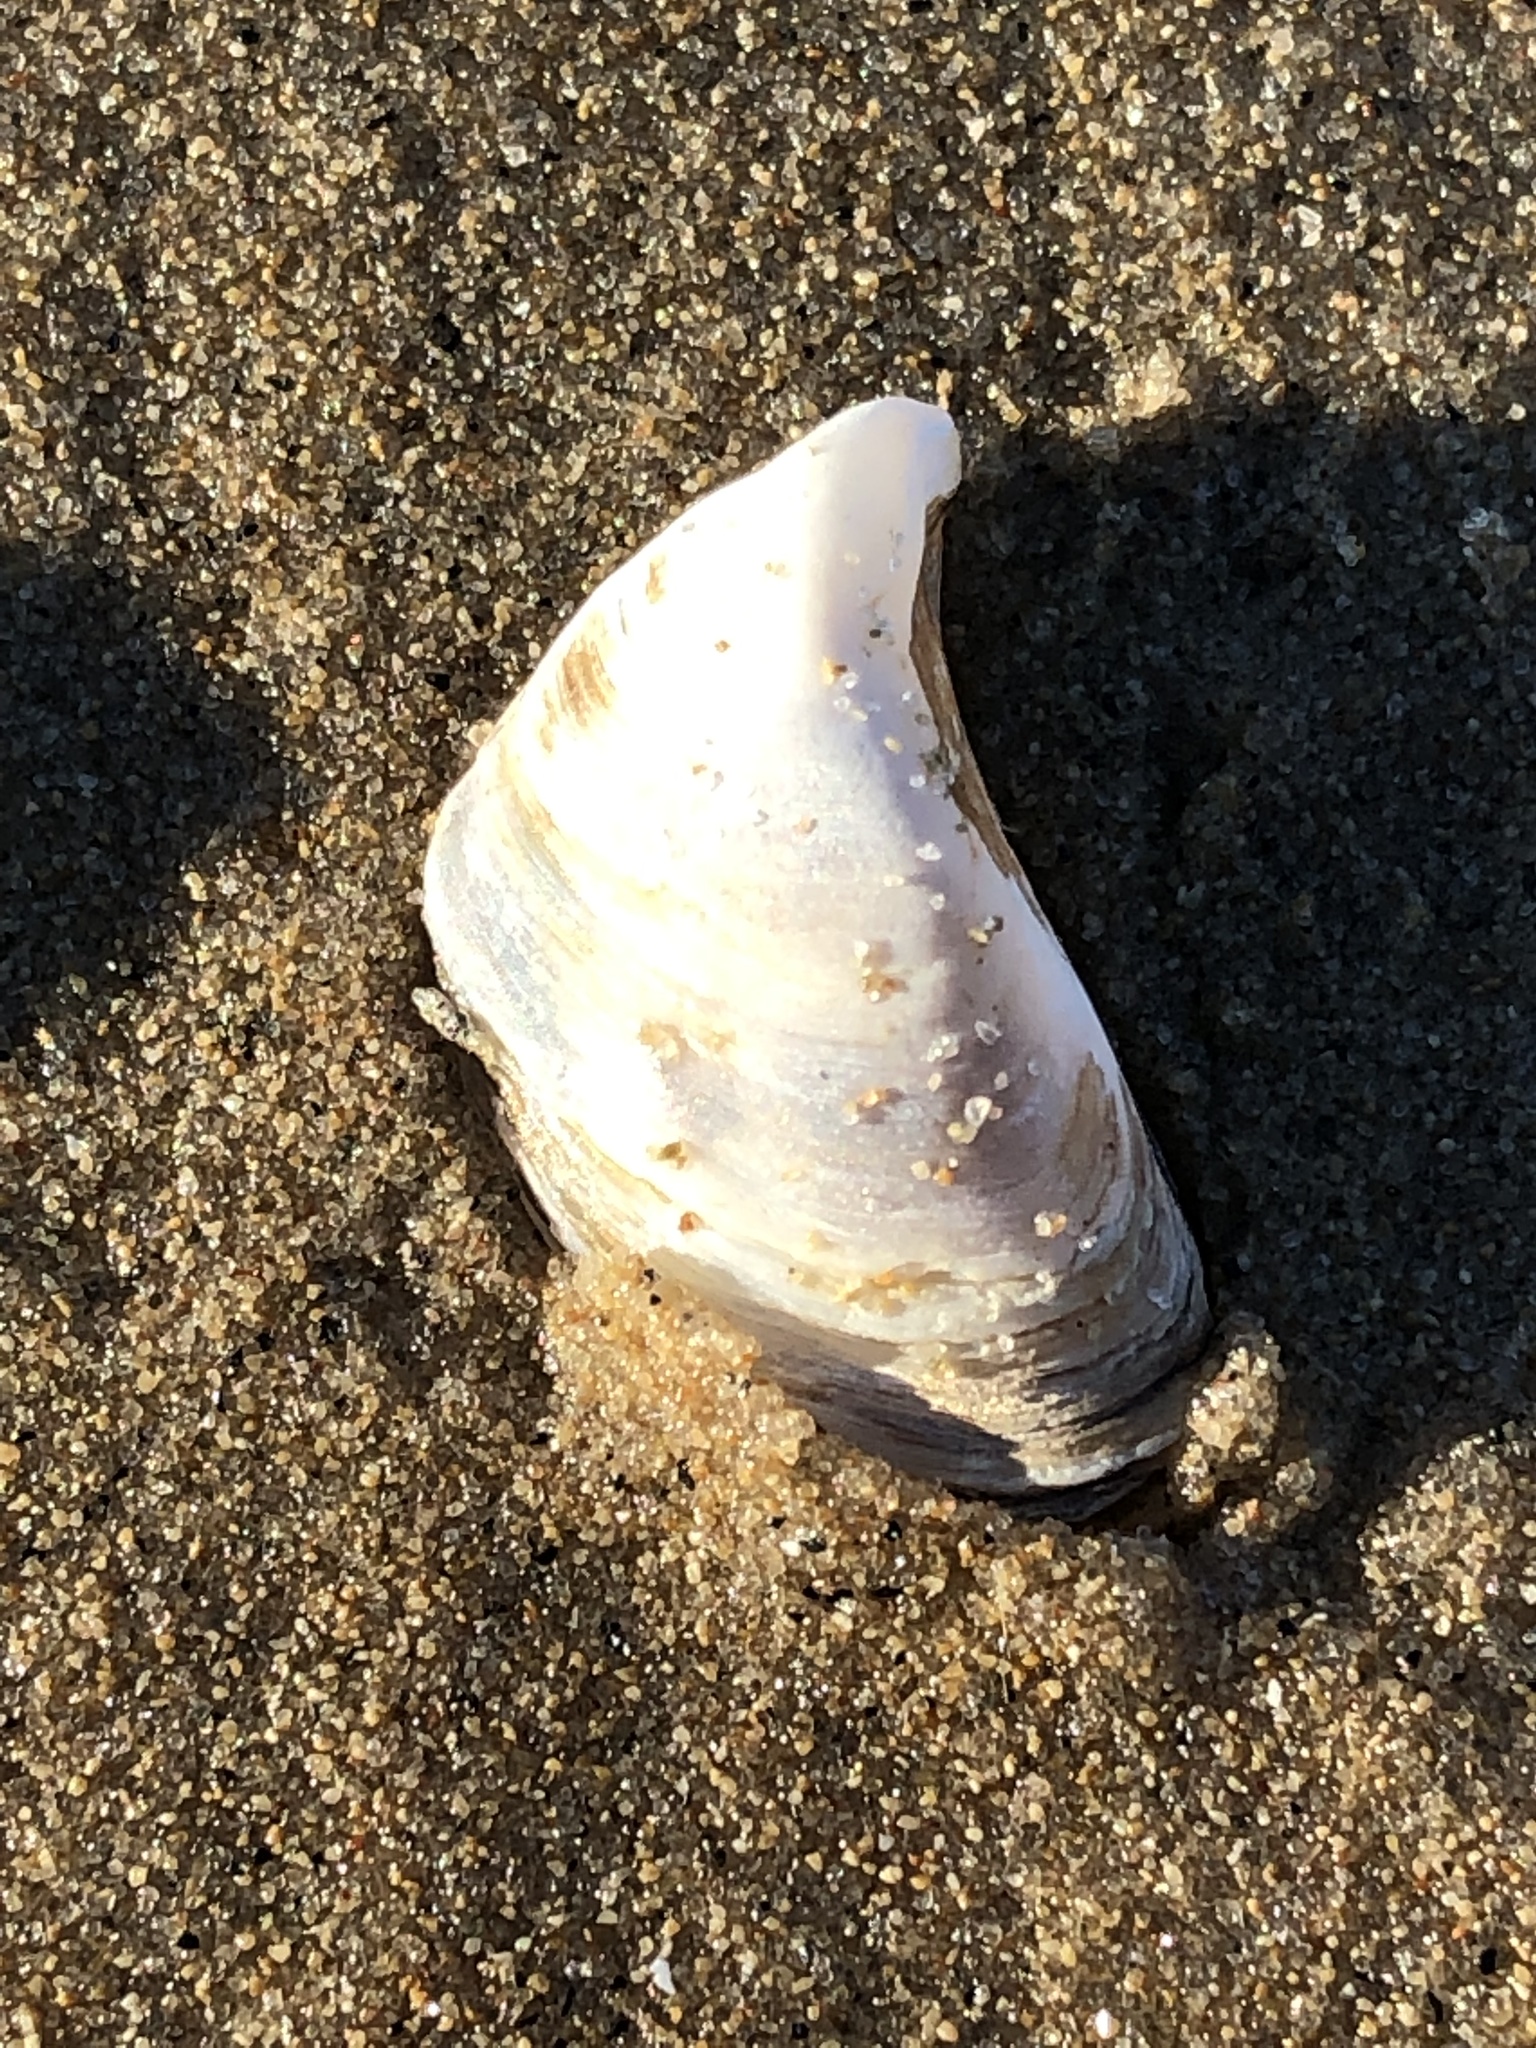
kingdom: Animalia
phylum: Mollusca
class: Bivalvia
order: Myida
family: Dreissenidae
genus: Dreissena
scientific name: Dreissena bugensis
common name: Quagga mussel
